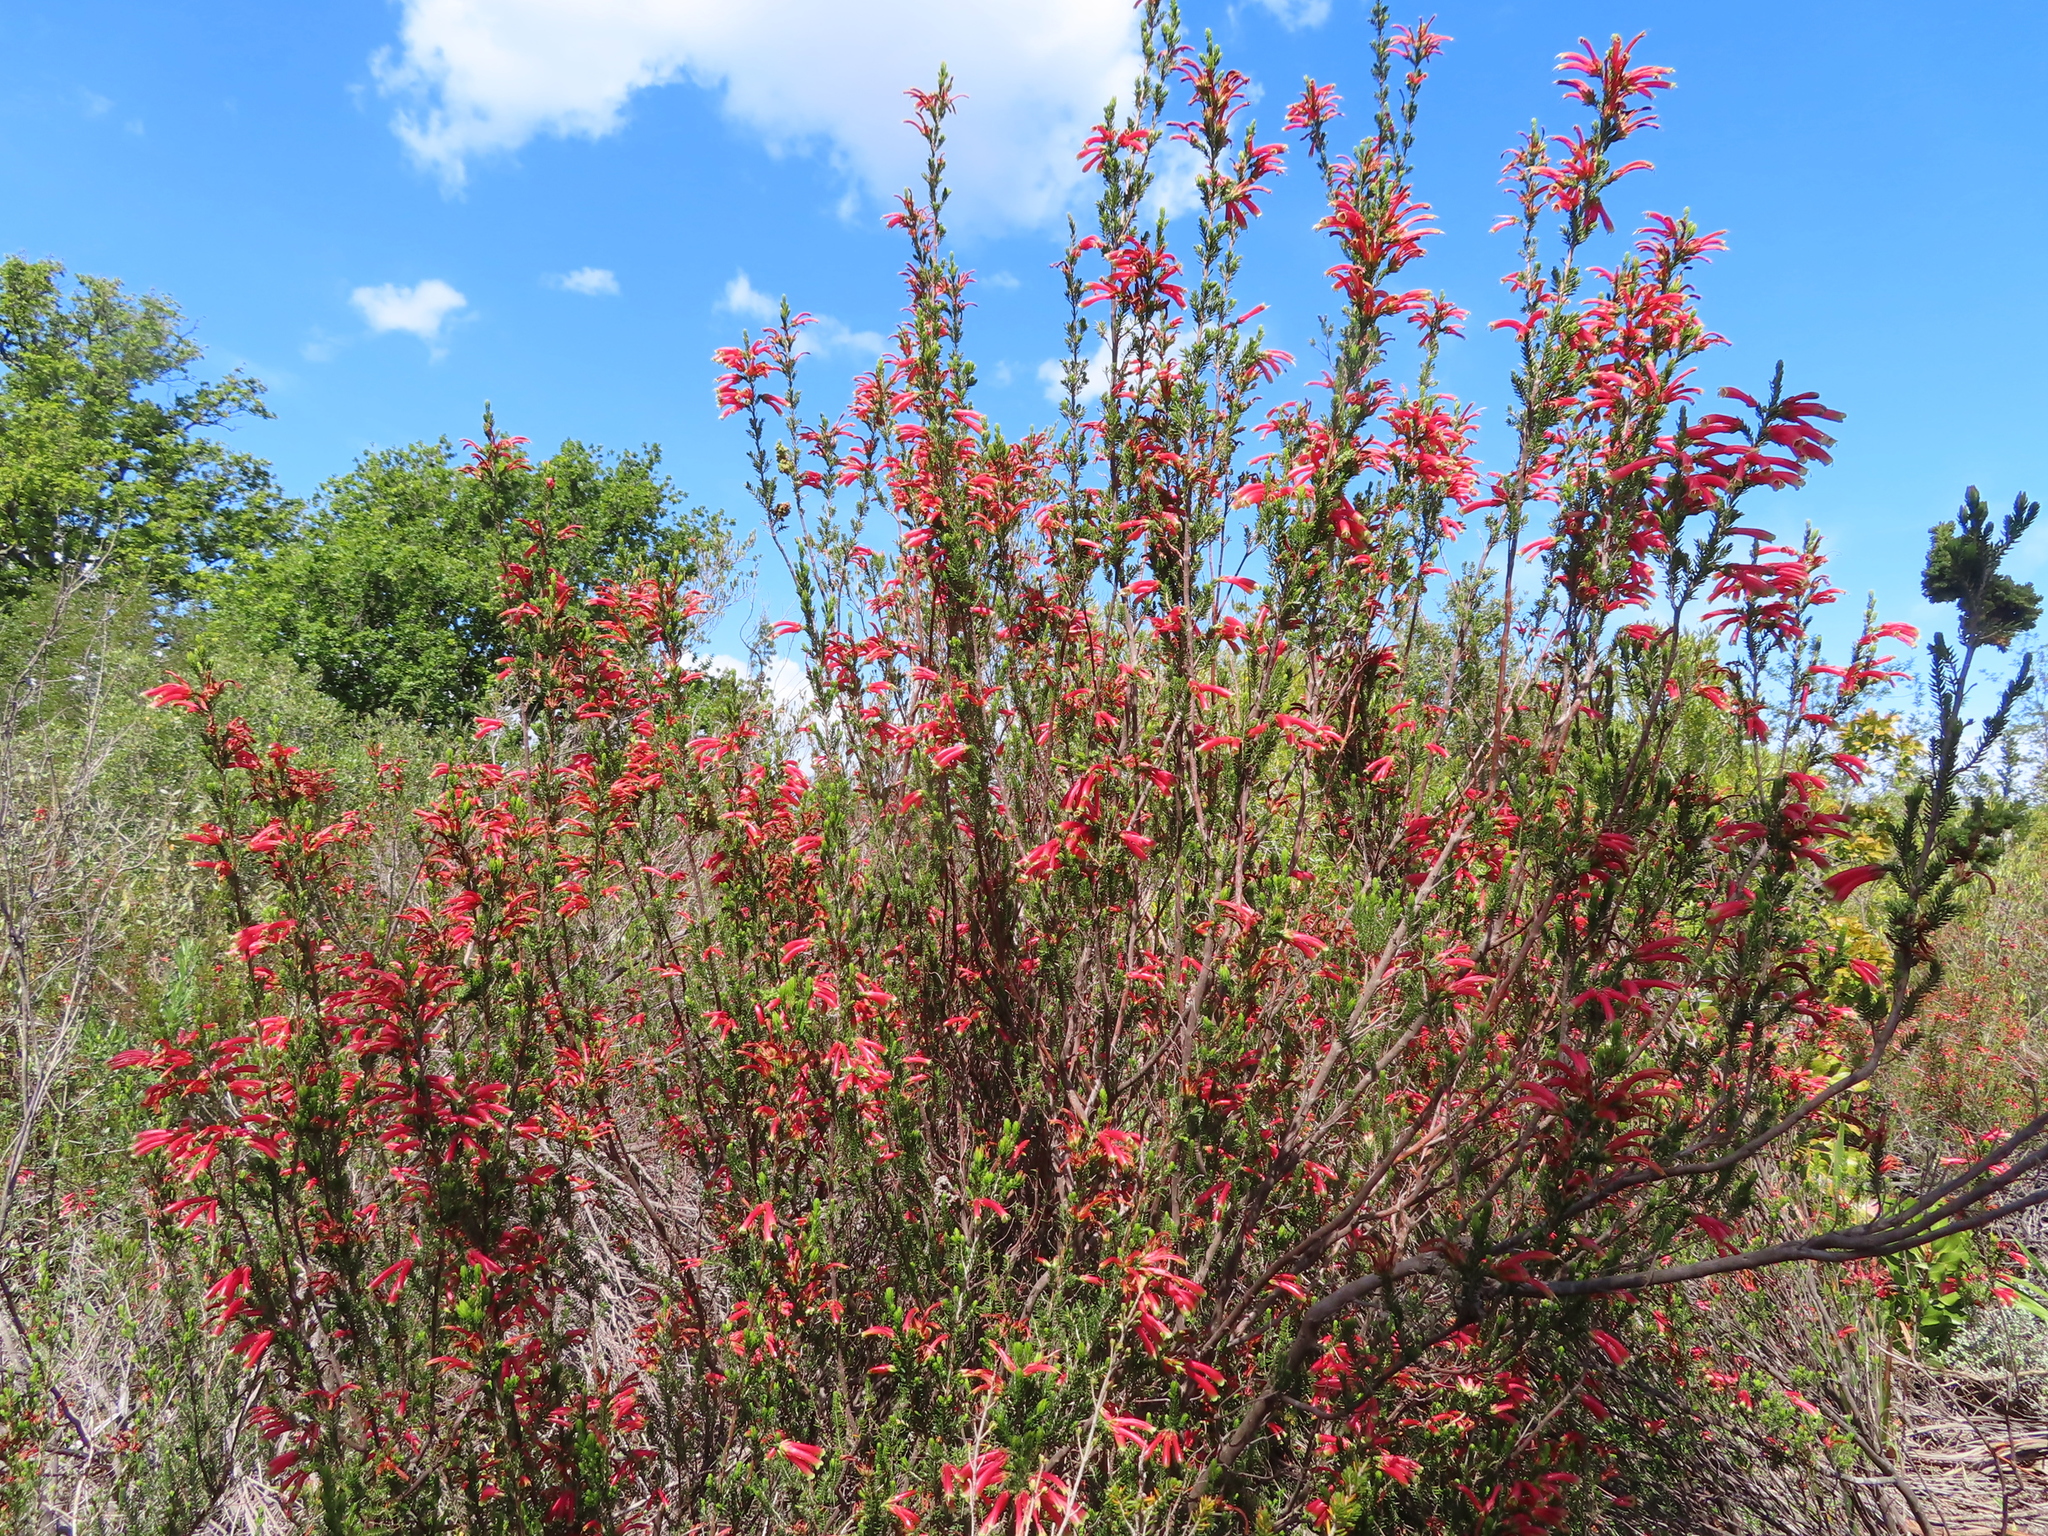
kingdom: Plantae
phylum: Tracheophyta
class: Magnoliopsida
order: Ericales
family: Ericaceae
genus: Erica
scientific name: Erica versicolor
